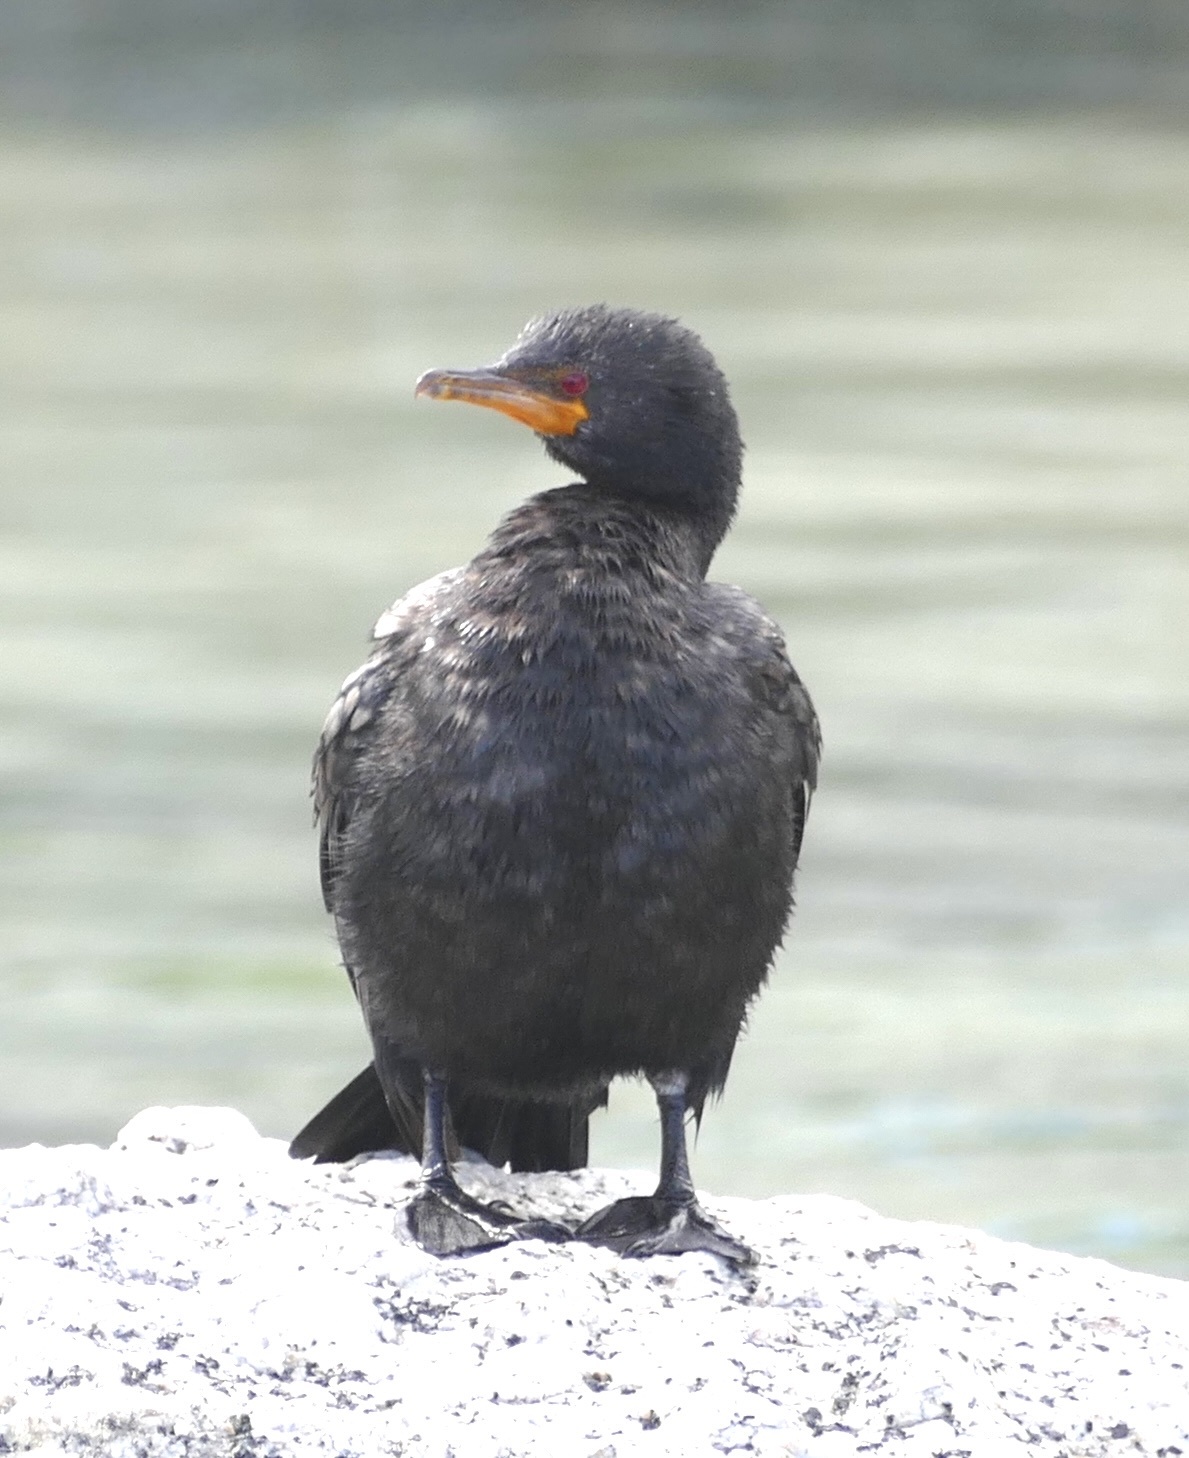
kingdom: Animalia
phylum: Chordata
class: Aves
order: Suliformes
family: Phalacrocoracidae
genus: Microcarbo
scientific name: Microcarbo coronatus
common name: Crowned cormorant
